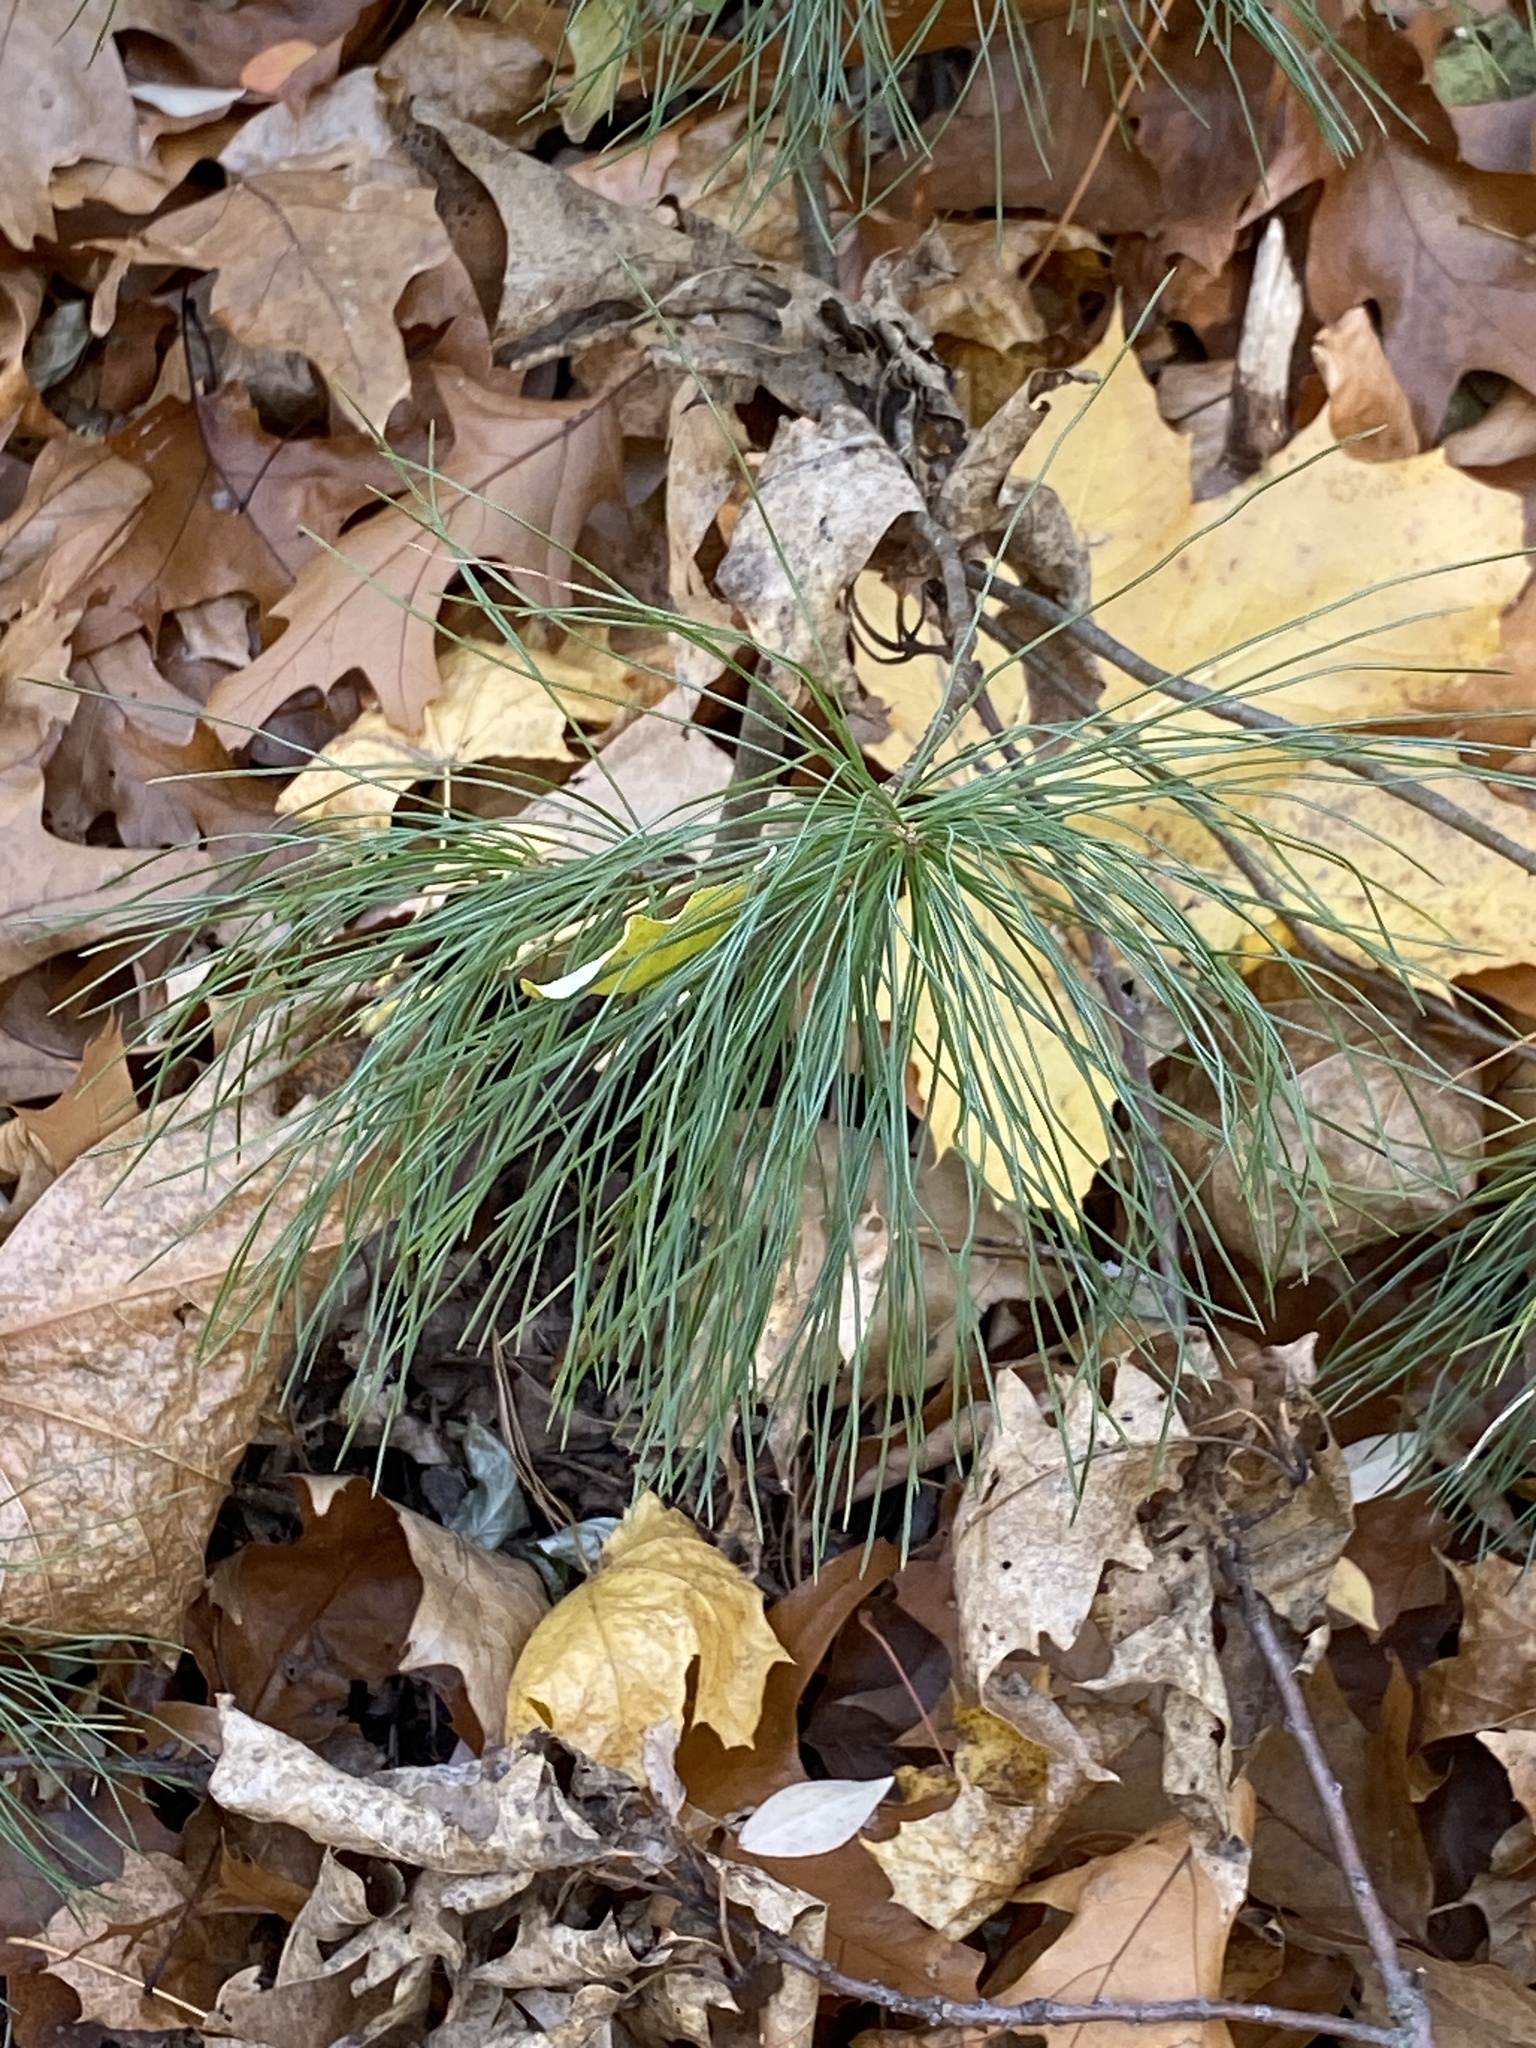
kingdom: Plantae
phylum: Tracheophyta
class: Pinopsida
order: Pinales
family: Pinaceae
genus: Pinus
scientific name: Pinus strobus
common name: Weymouth pine
